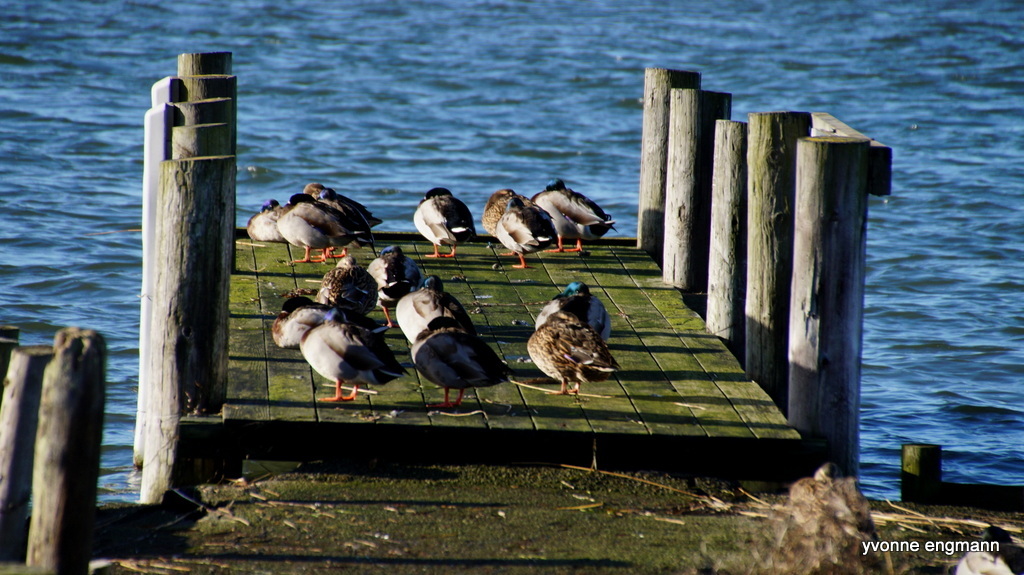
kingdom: Animalia
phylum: Chordata
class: Aves
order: Anseriformes
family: Anatidae
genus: Anas
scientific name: Anas platyrhynchos
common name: Mallard
